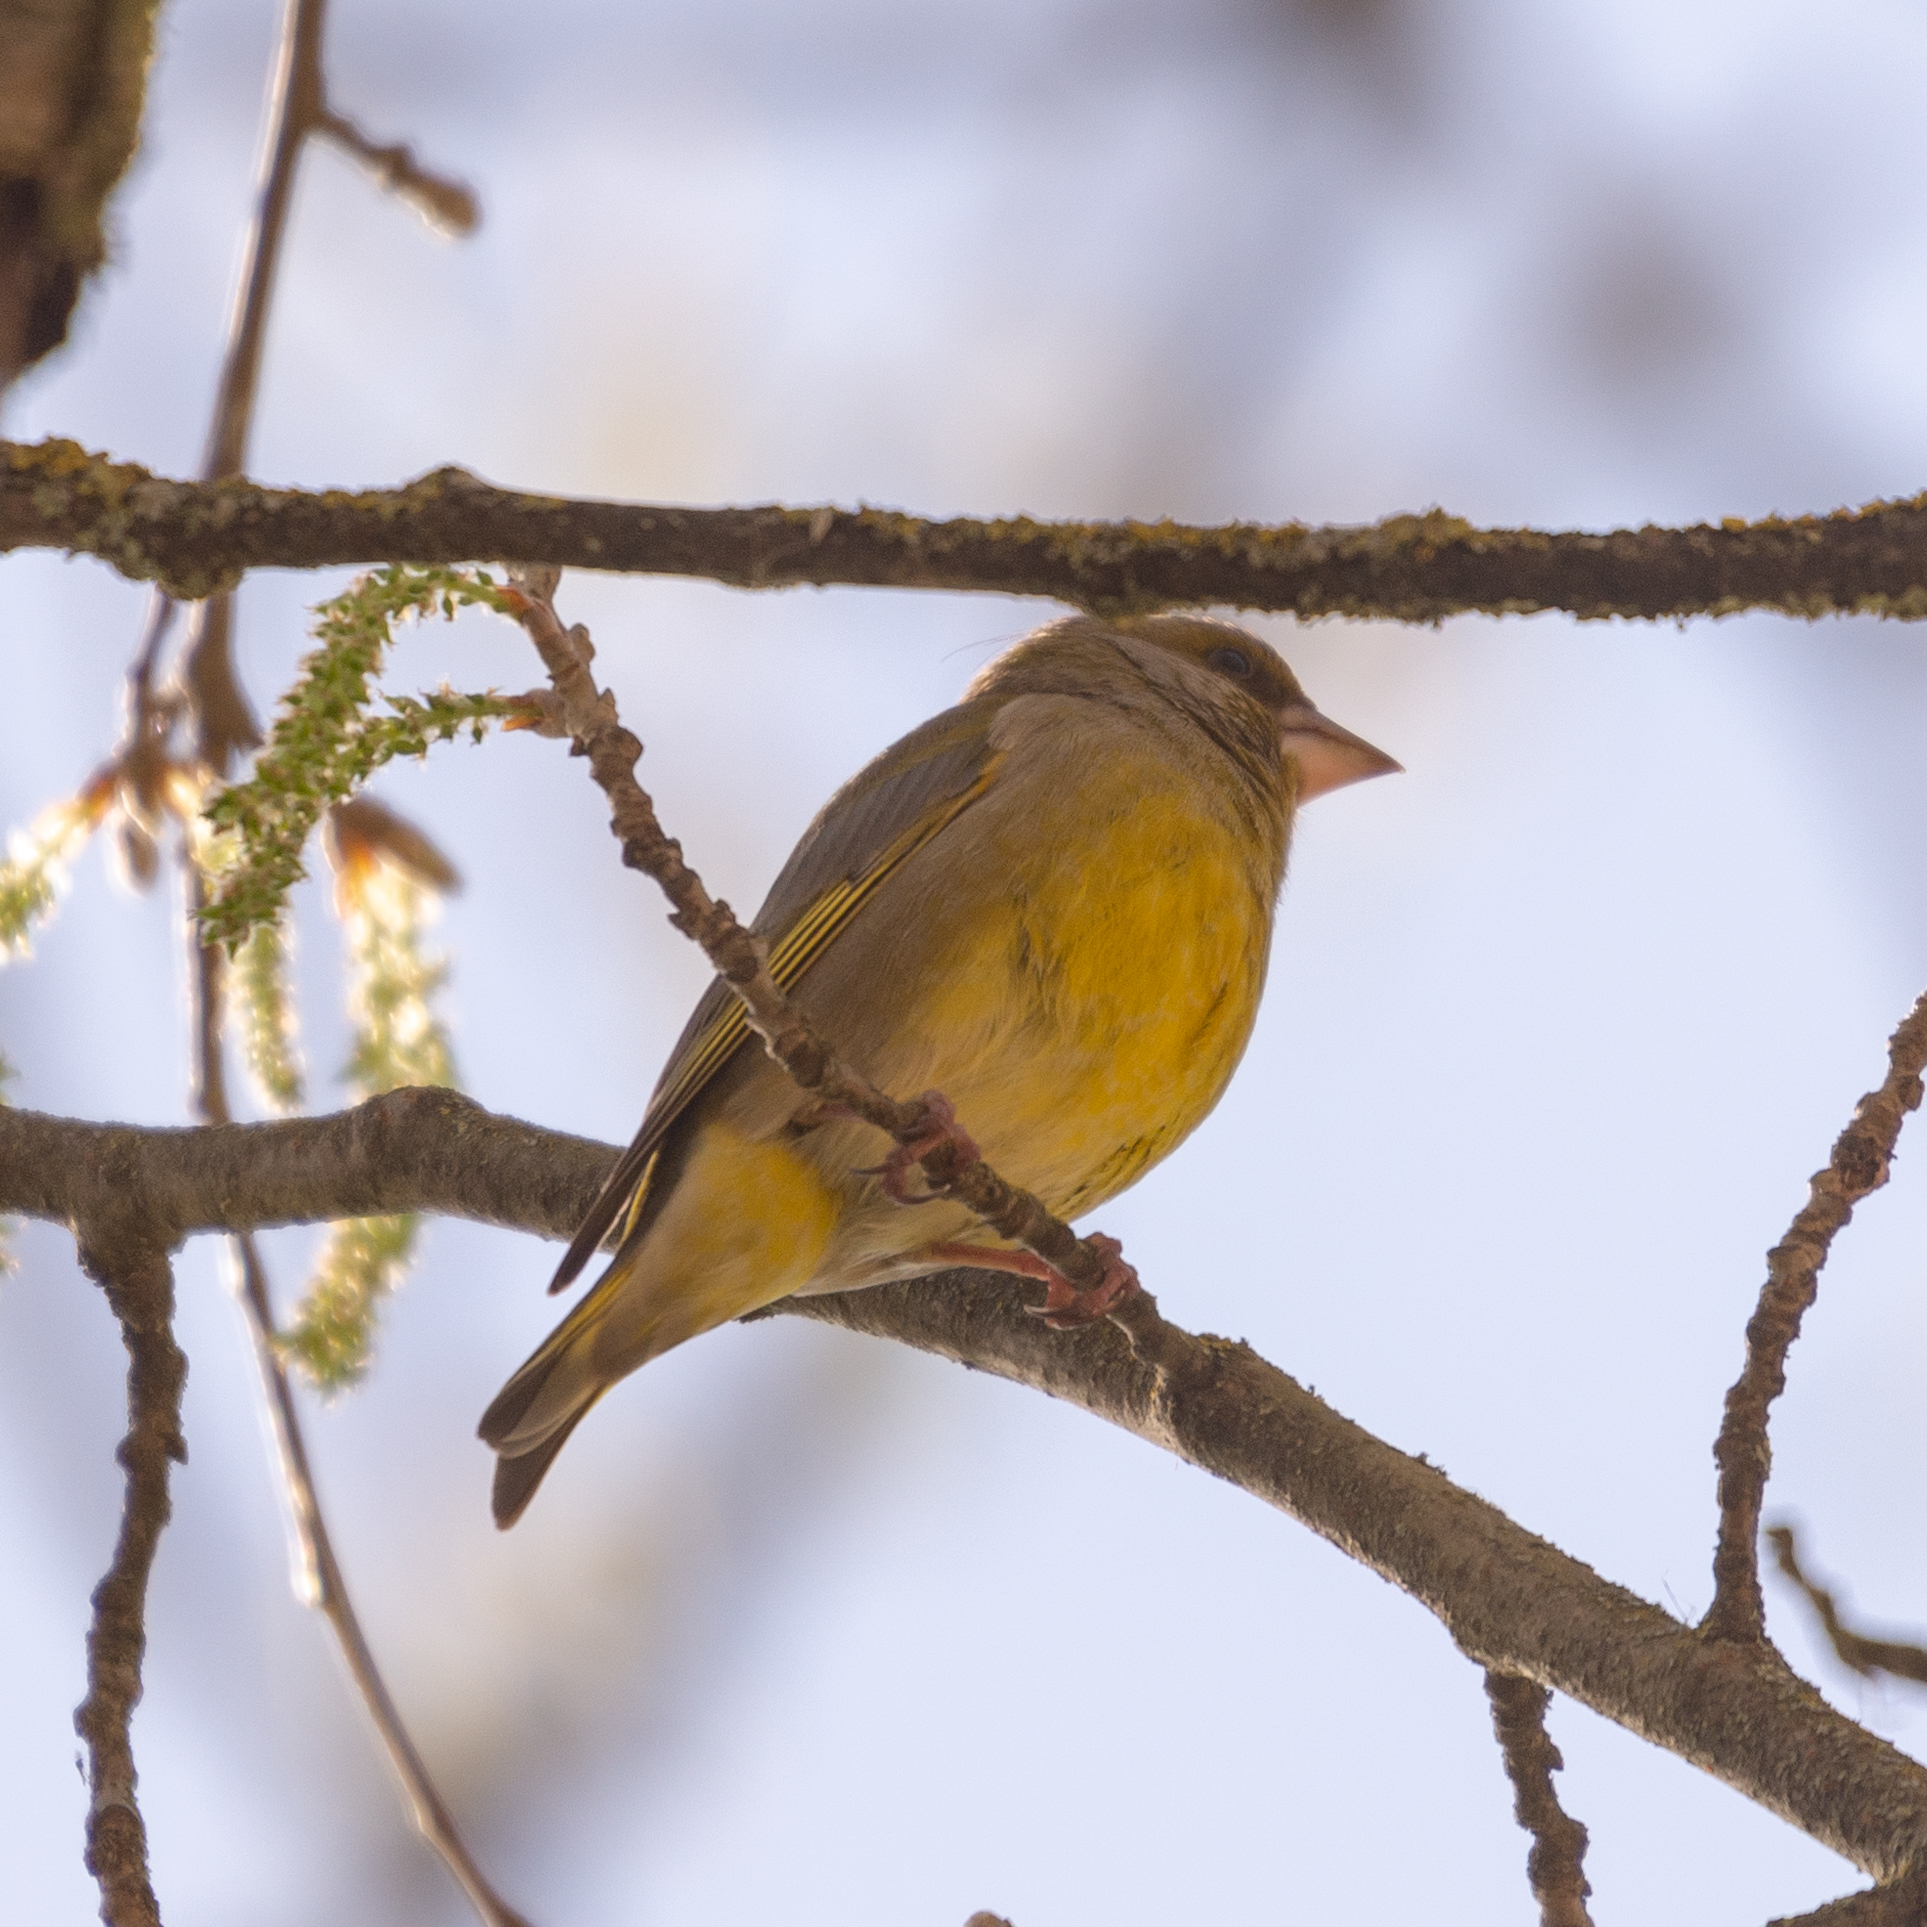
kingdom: Plantae
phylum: Tracheophyta
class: Liliopsida
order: Poales
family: Poaceae
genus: Chloris
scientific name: Chloris chloris
